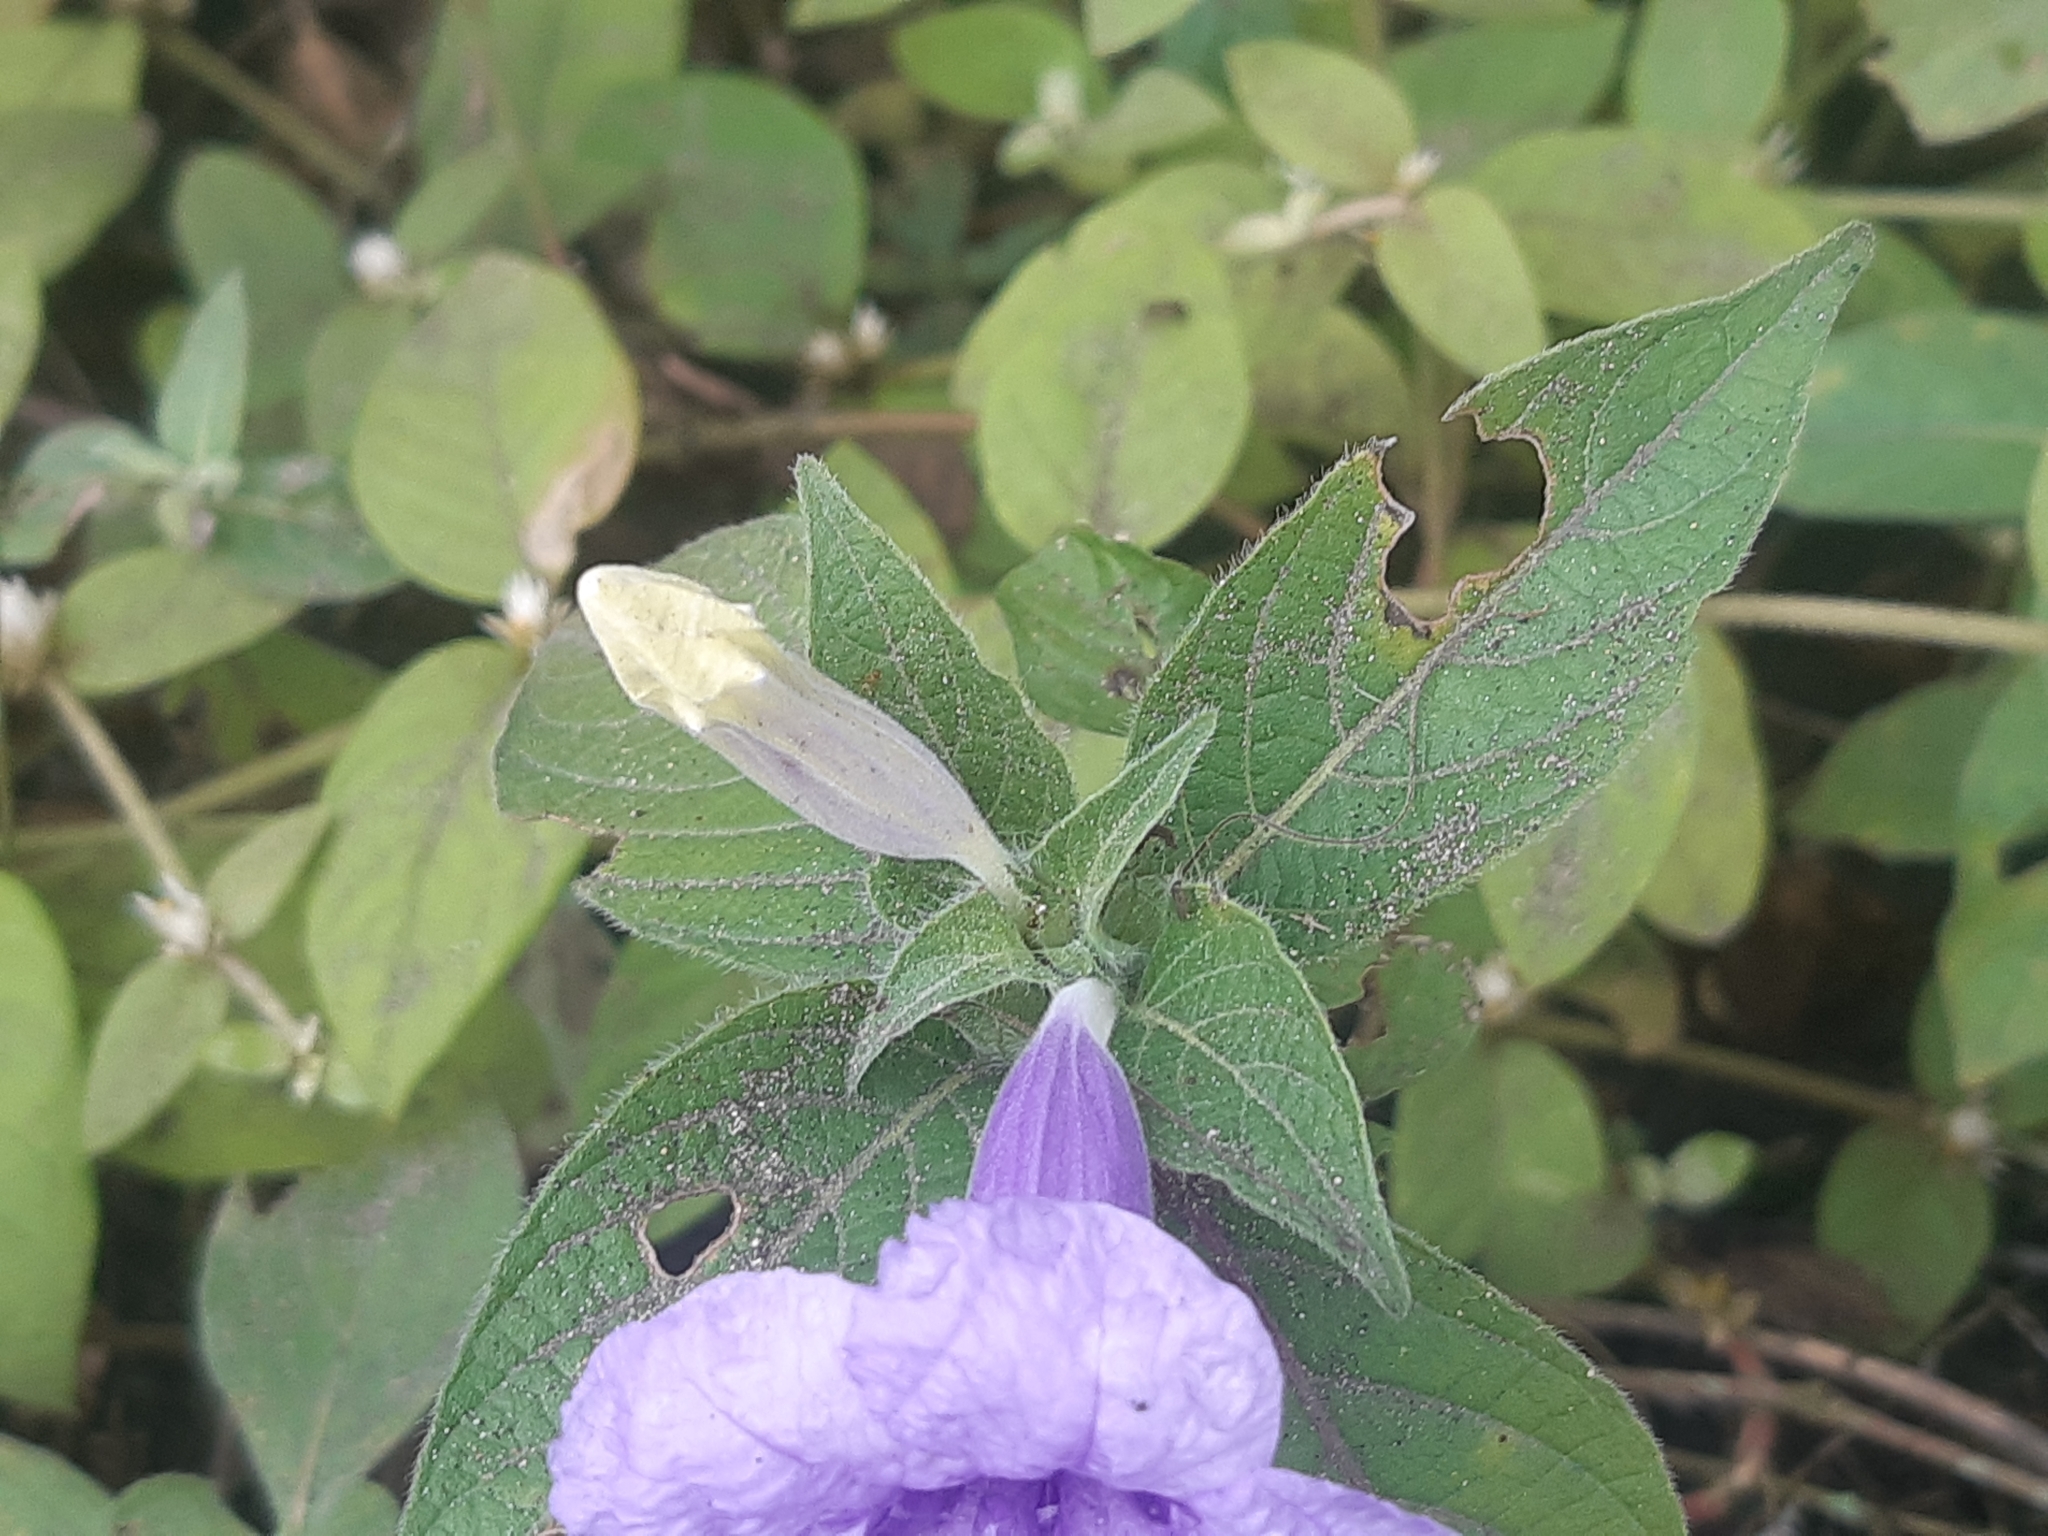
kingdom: Plantae
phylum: Tracheophyta
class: Magnoliopsida
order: Lamiales
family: Acanthaceae
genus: Ruellia
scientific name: Ruellia spectabilis
